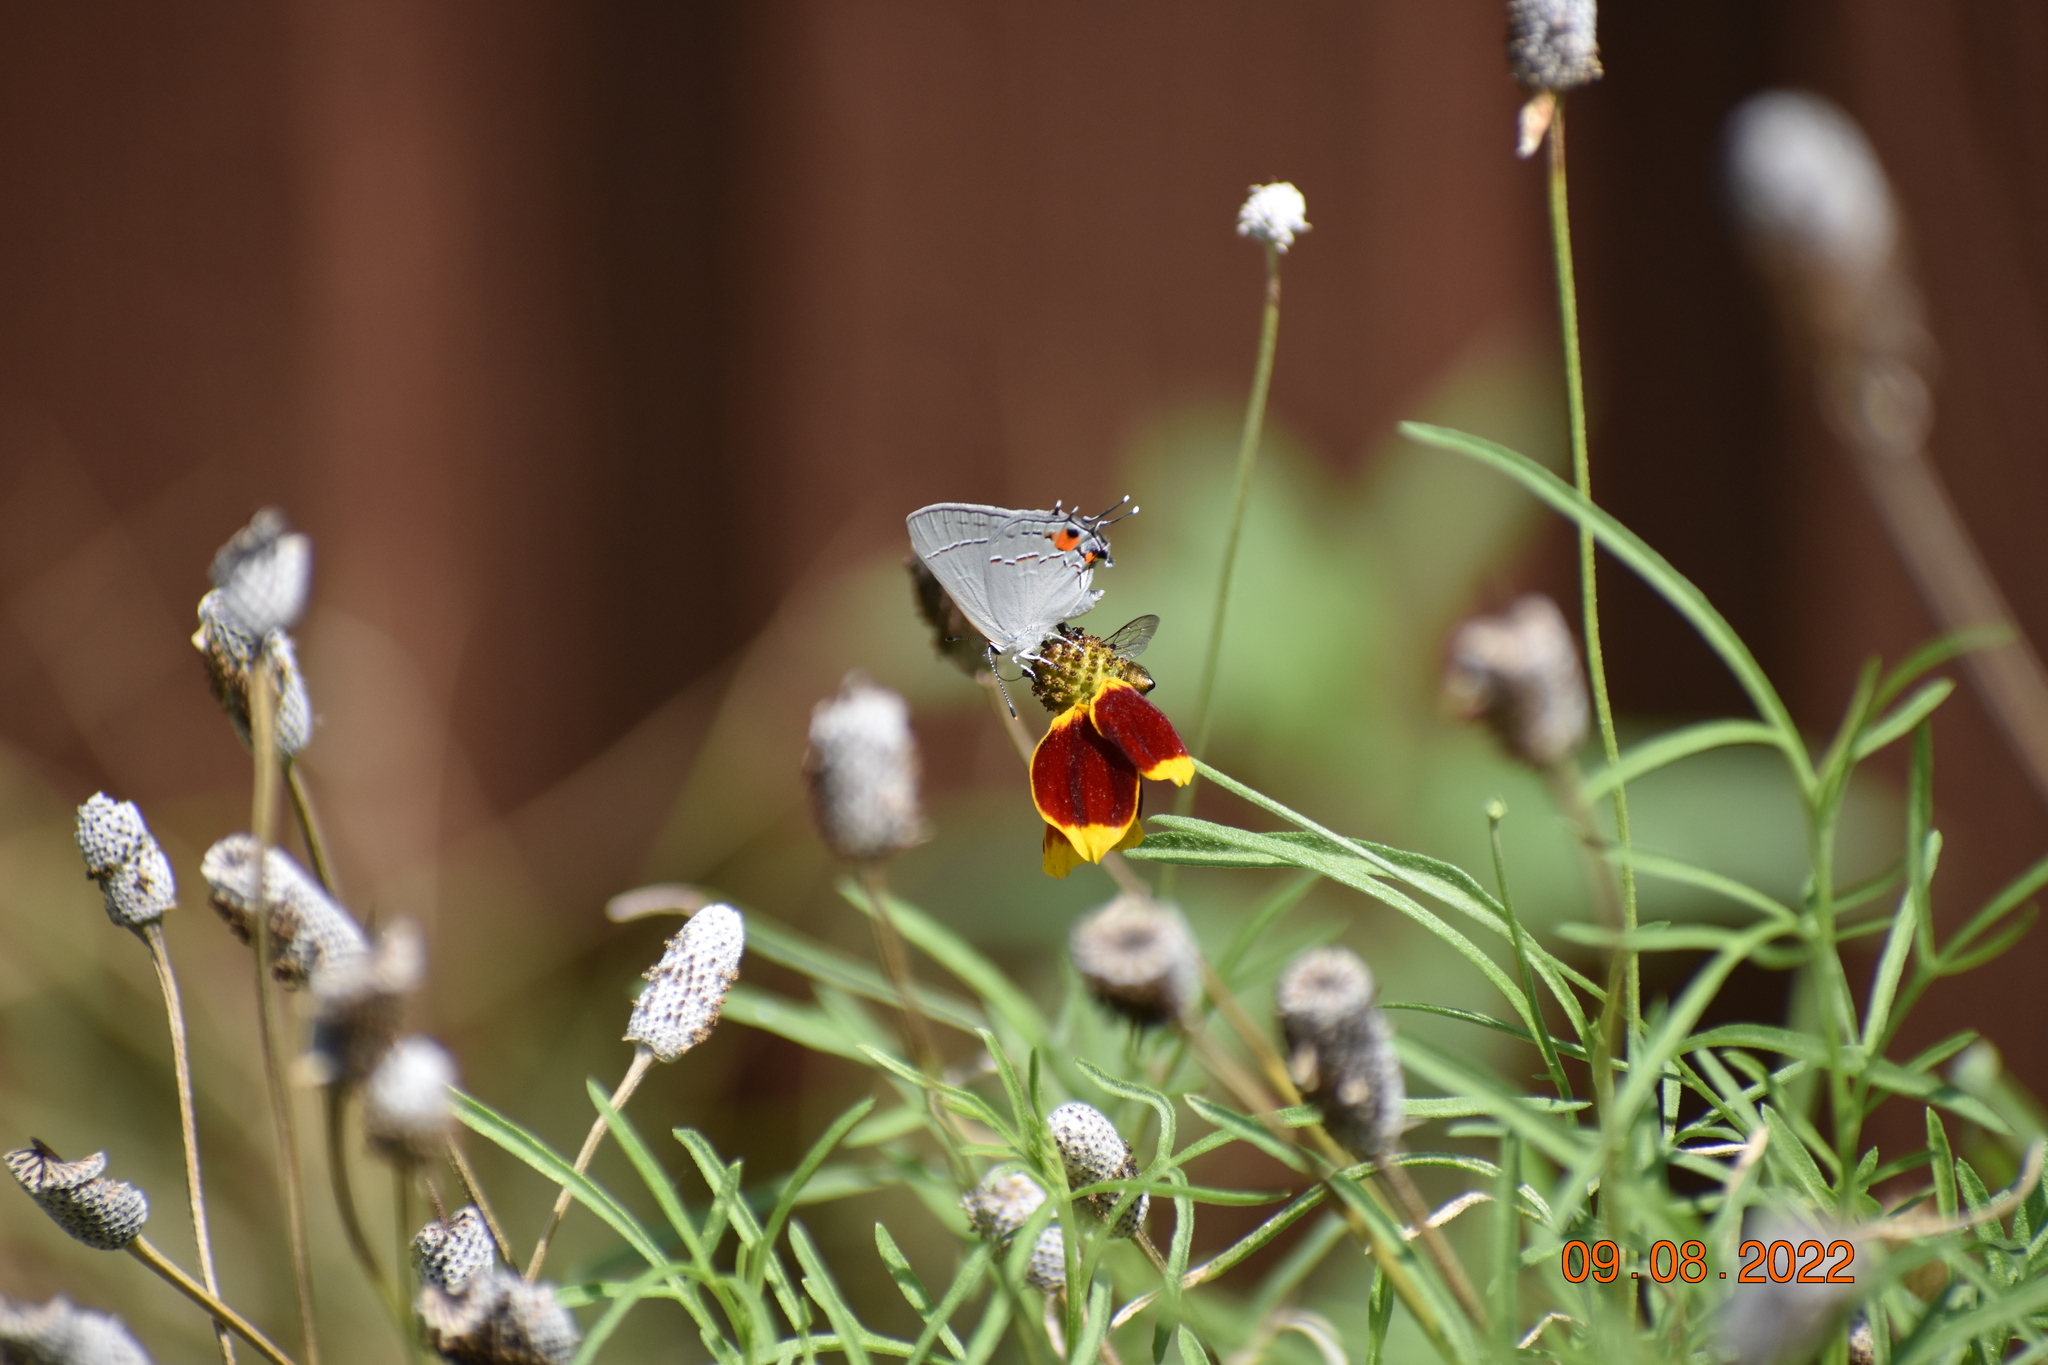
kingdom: Animalia
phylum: Arthropoda
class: Insecta
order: Lepidoptera
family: Lycaenidae
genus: Strymon
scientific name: Strymon melinus
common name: Gray hairstreak
